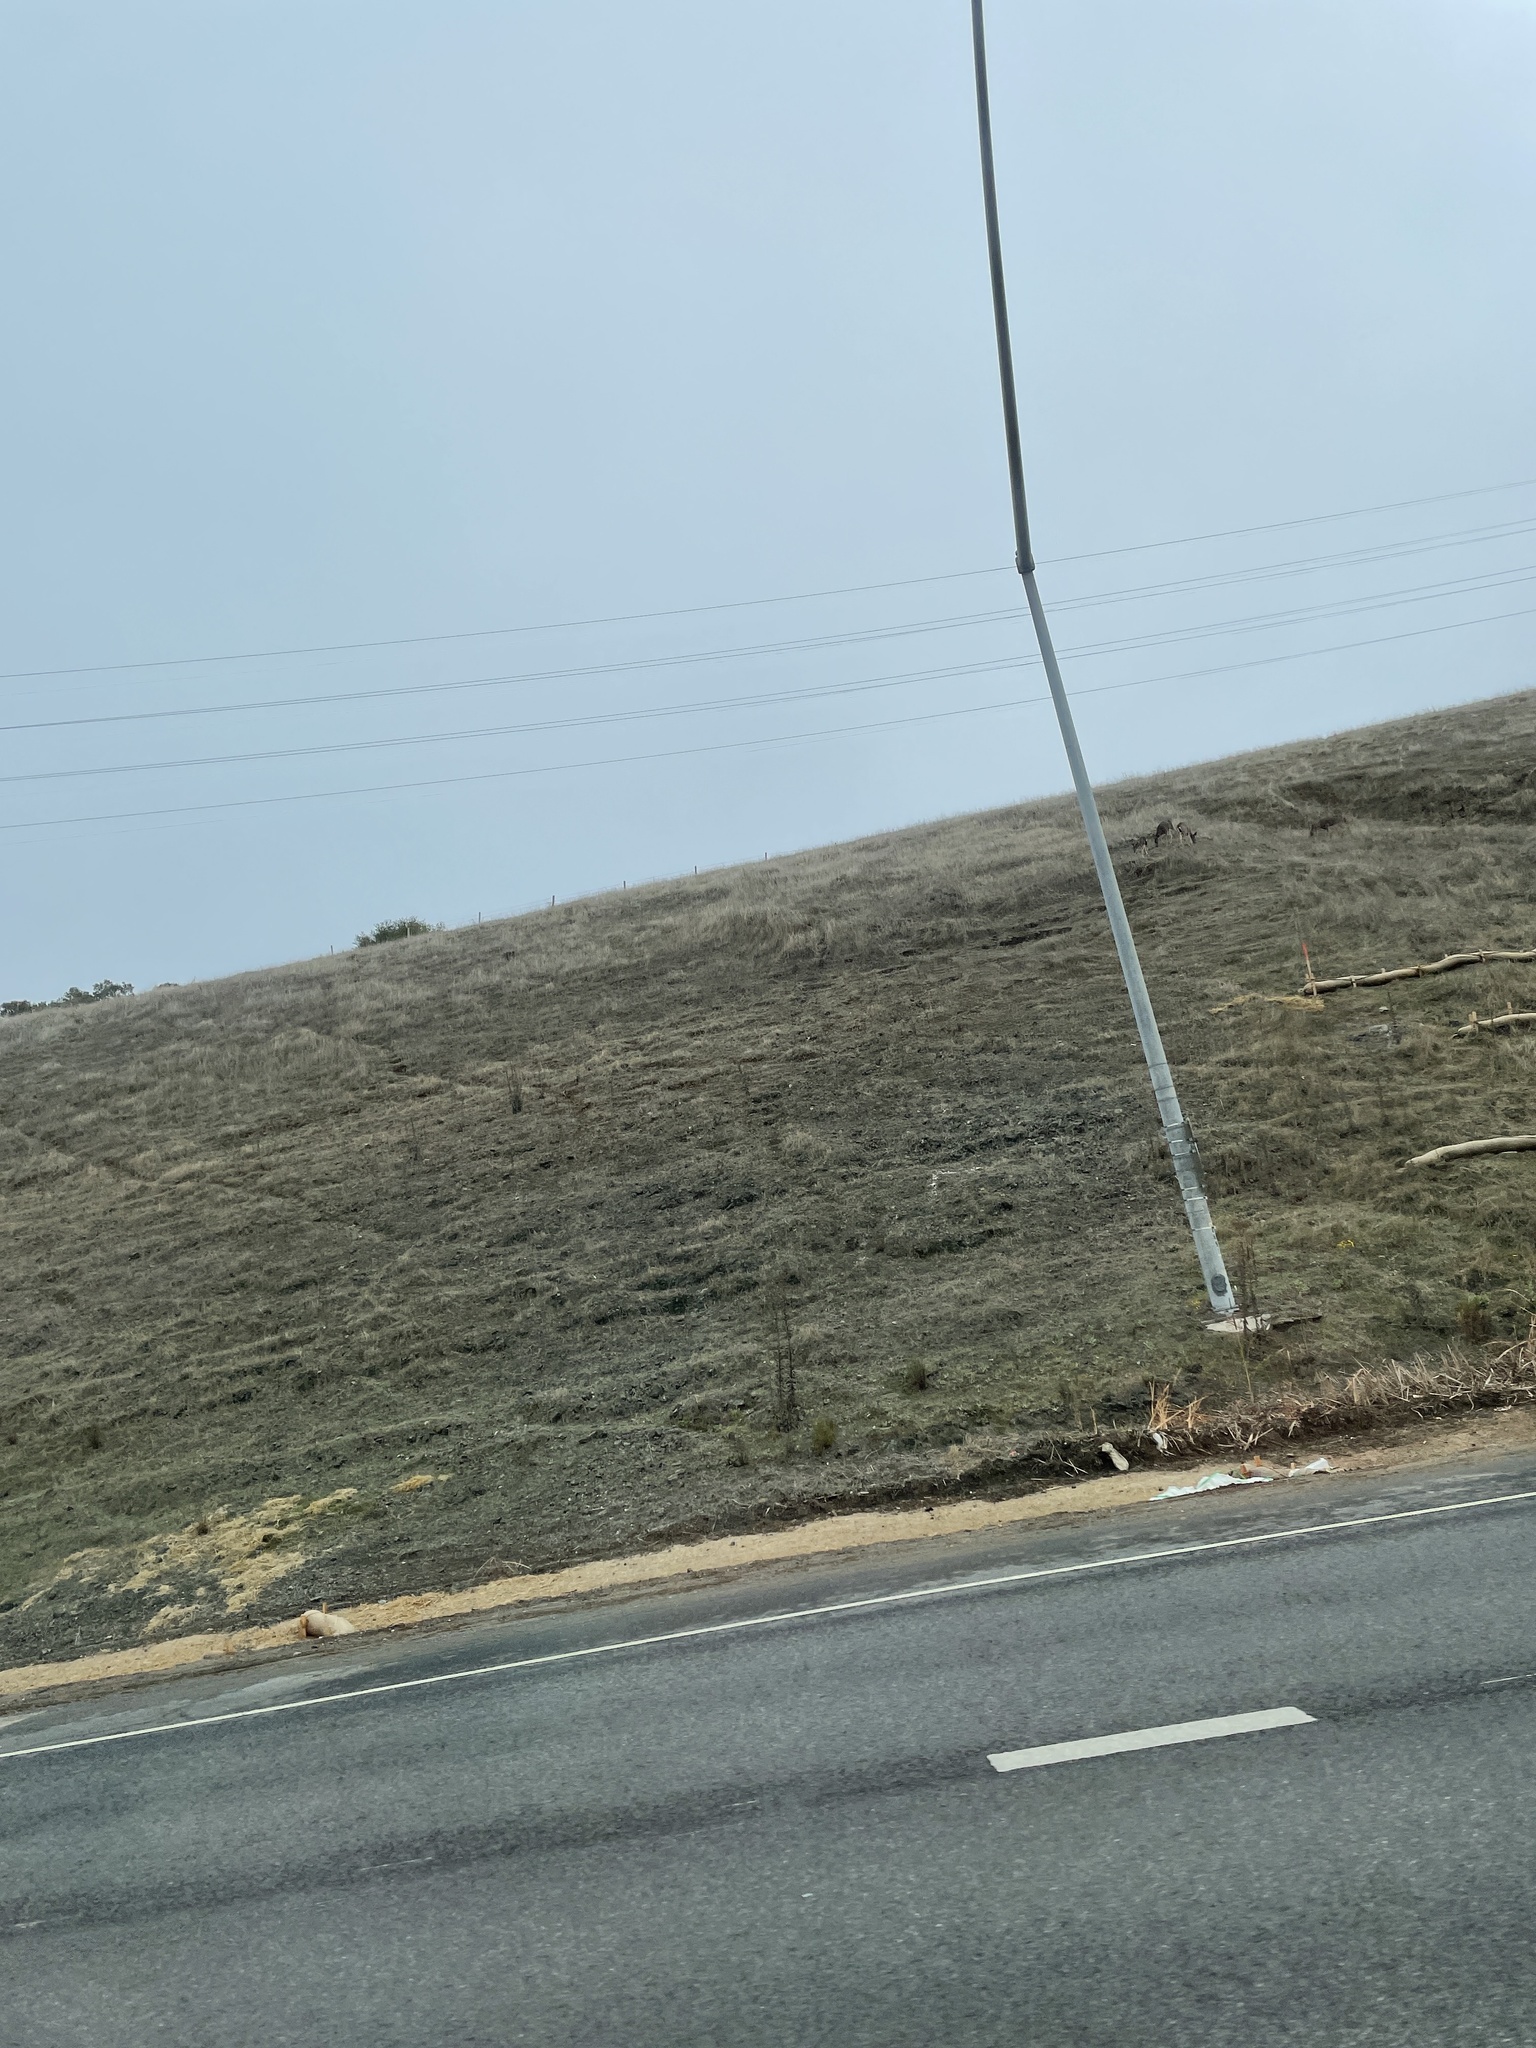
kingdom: Animalia
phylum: Chordata
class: Mammalia
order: Artiodactyla
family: Cervidae
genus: Odocoileus
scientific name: Odocoileus hemionus
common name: Mule deer
